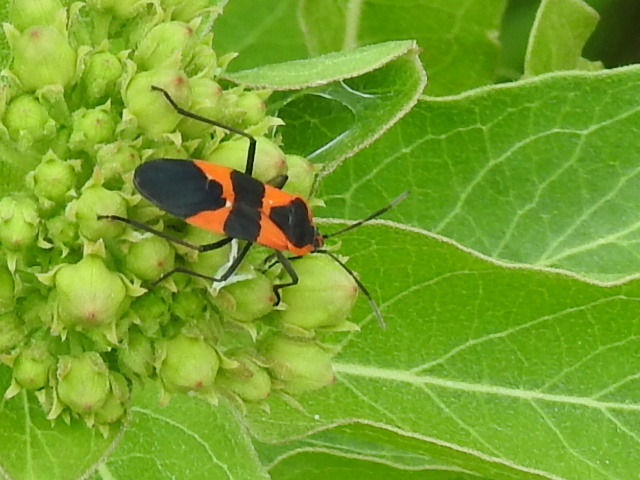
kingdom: Animalia
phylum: Arthropoda
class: Insecta
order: Hemiptera
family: Lygaeidae
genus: Oncopeltus
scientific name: Oncopeltus fasciatus
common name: Large milkweed bug
